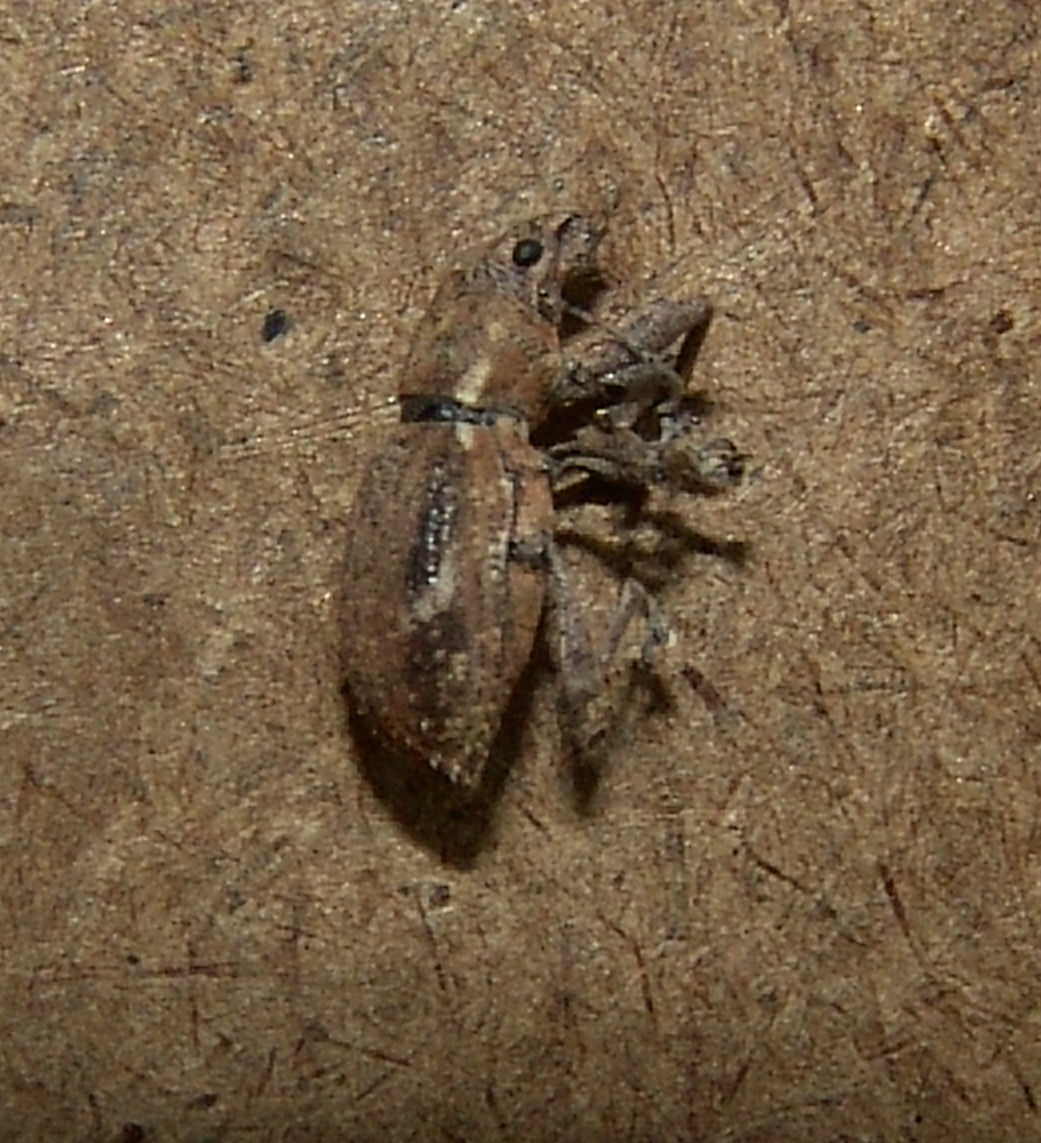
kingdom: Animalia
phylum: Arthropoda
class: Insecta
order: Coleoptera
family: Curculionidae
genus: Naupactus
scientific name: Naupactus cervinus
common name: Fuller rose beetle
